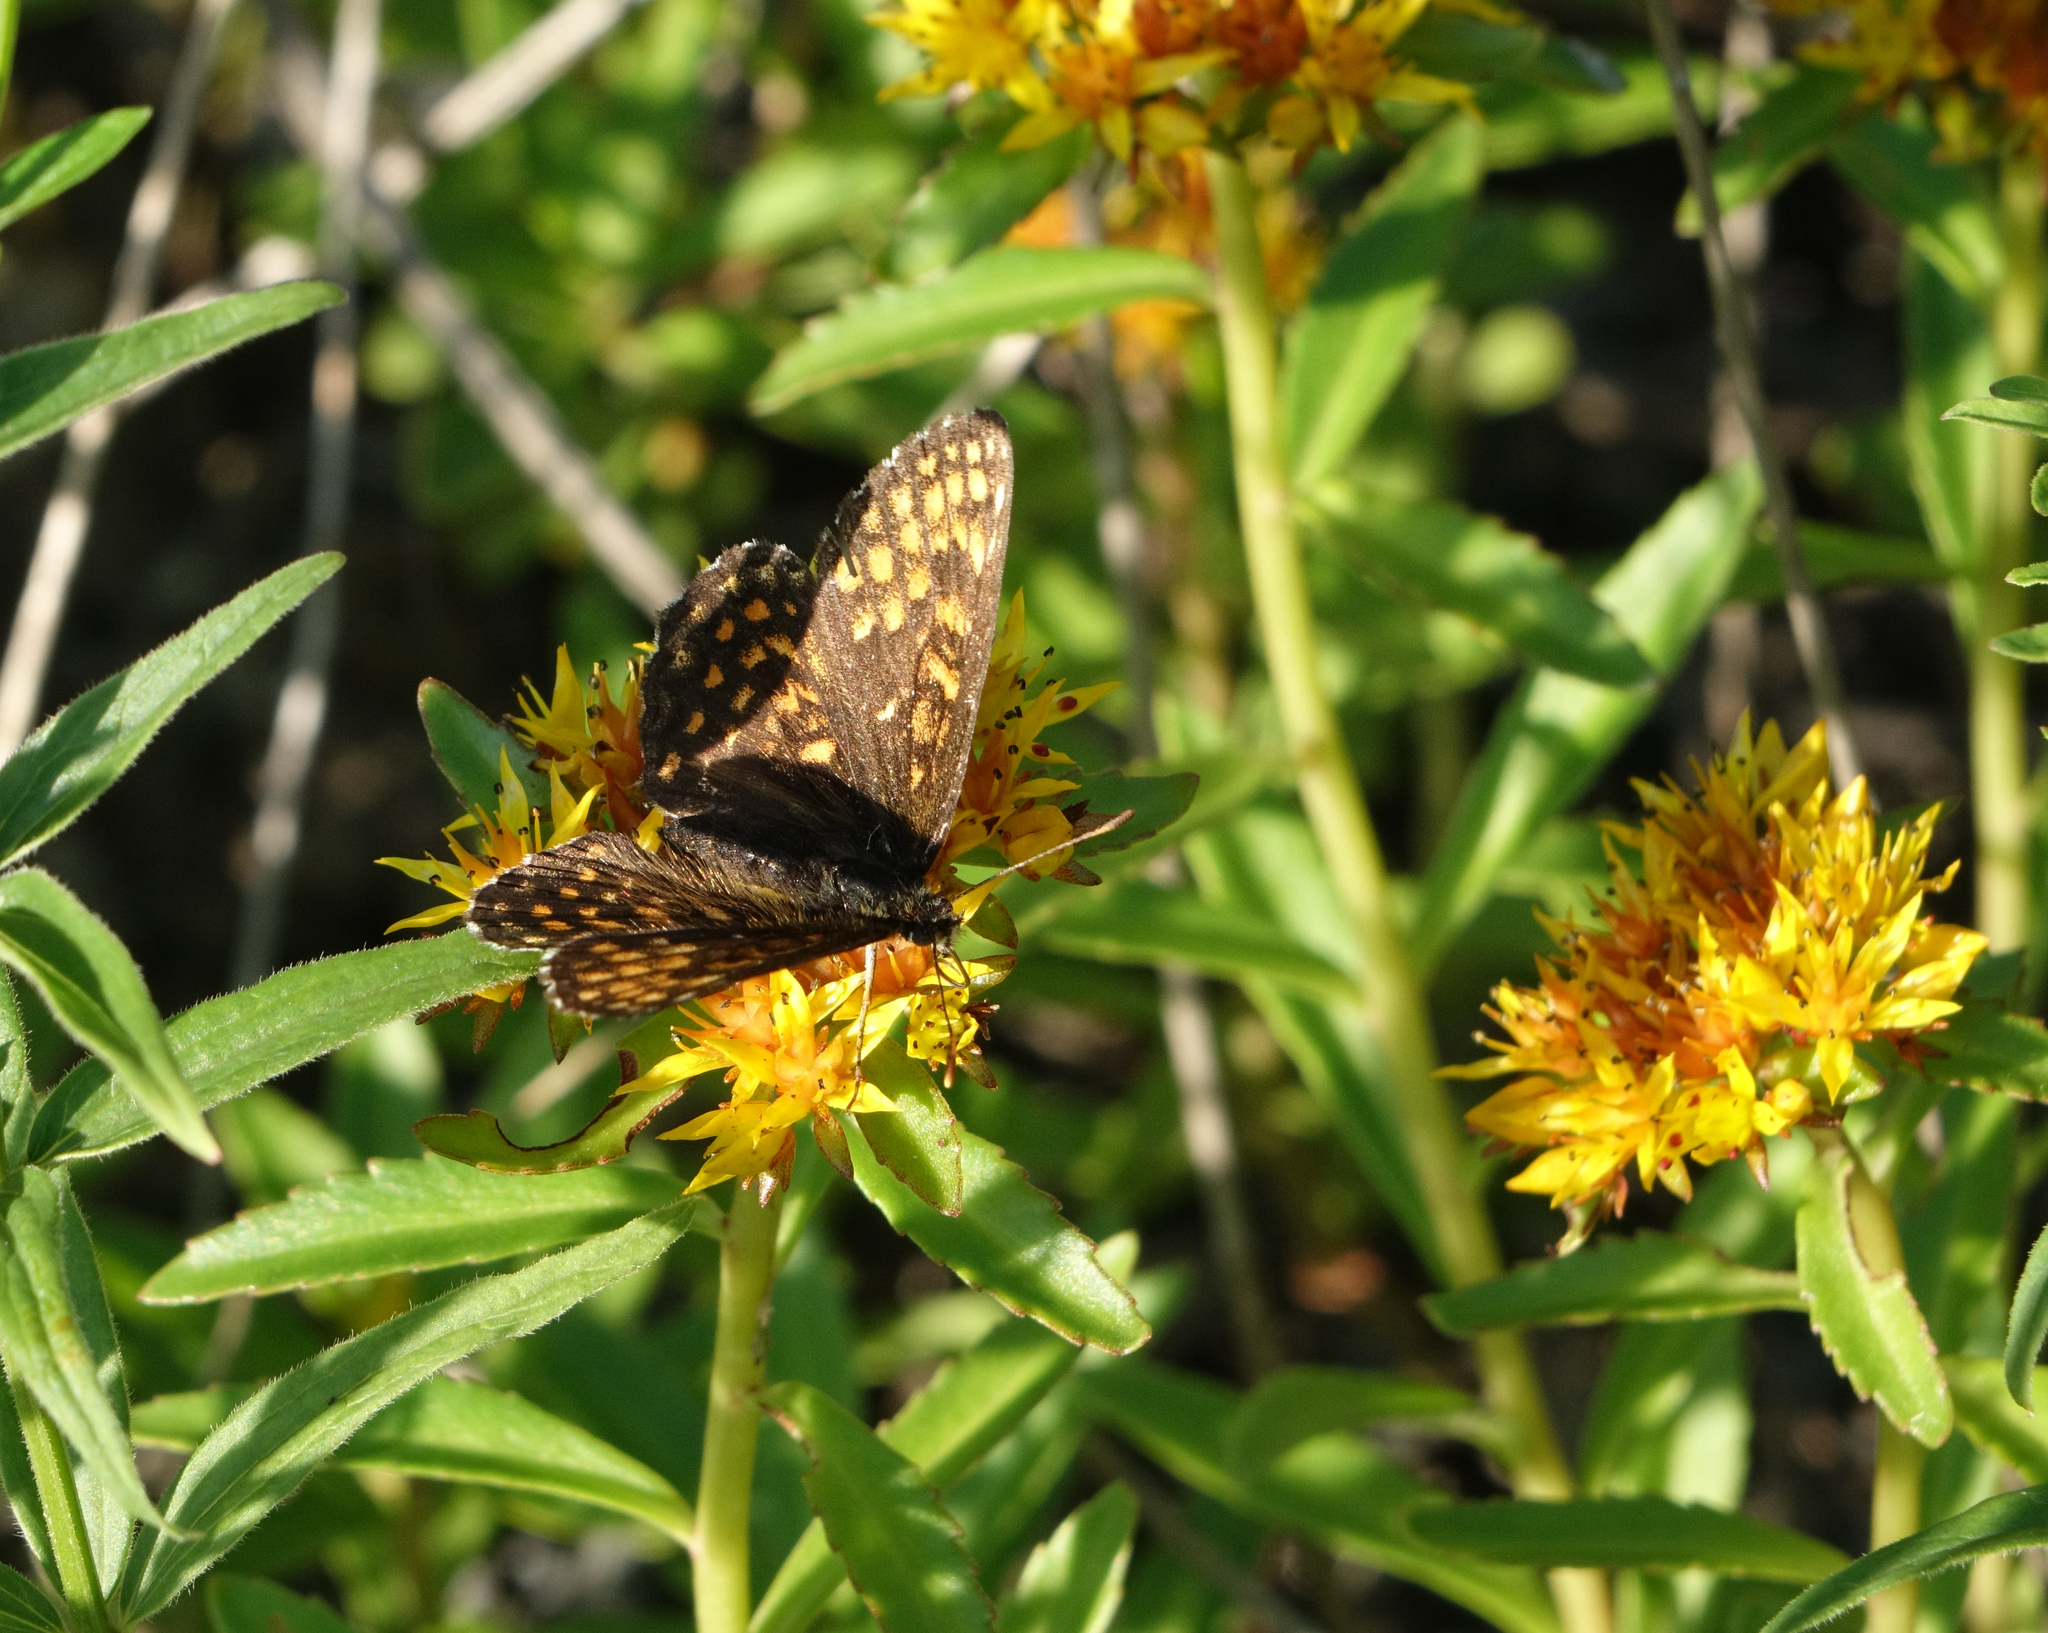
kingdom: Plantae
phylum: Tracheophyta
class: Magnoliopsida
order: Saxifragales
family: Crassulaceae
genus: Phedimus
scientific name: Phedimus aizoon
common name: Orpin aizoon
